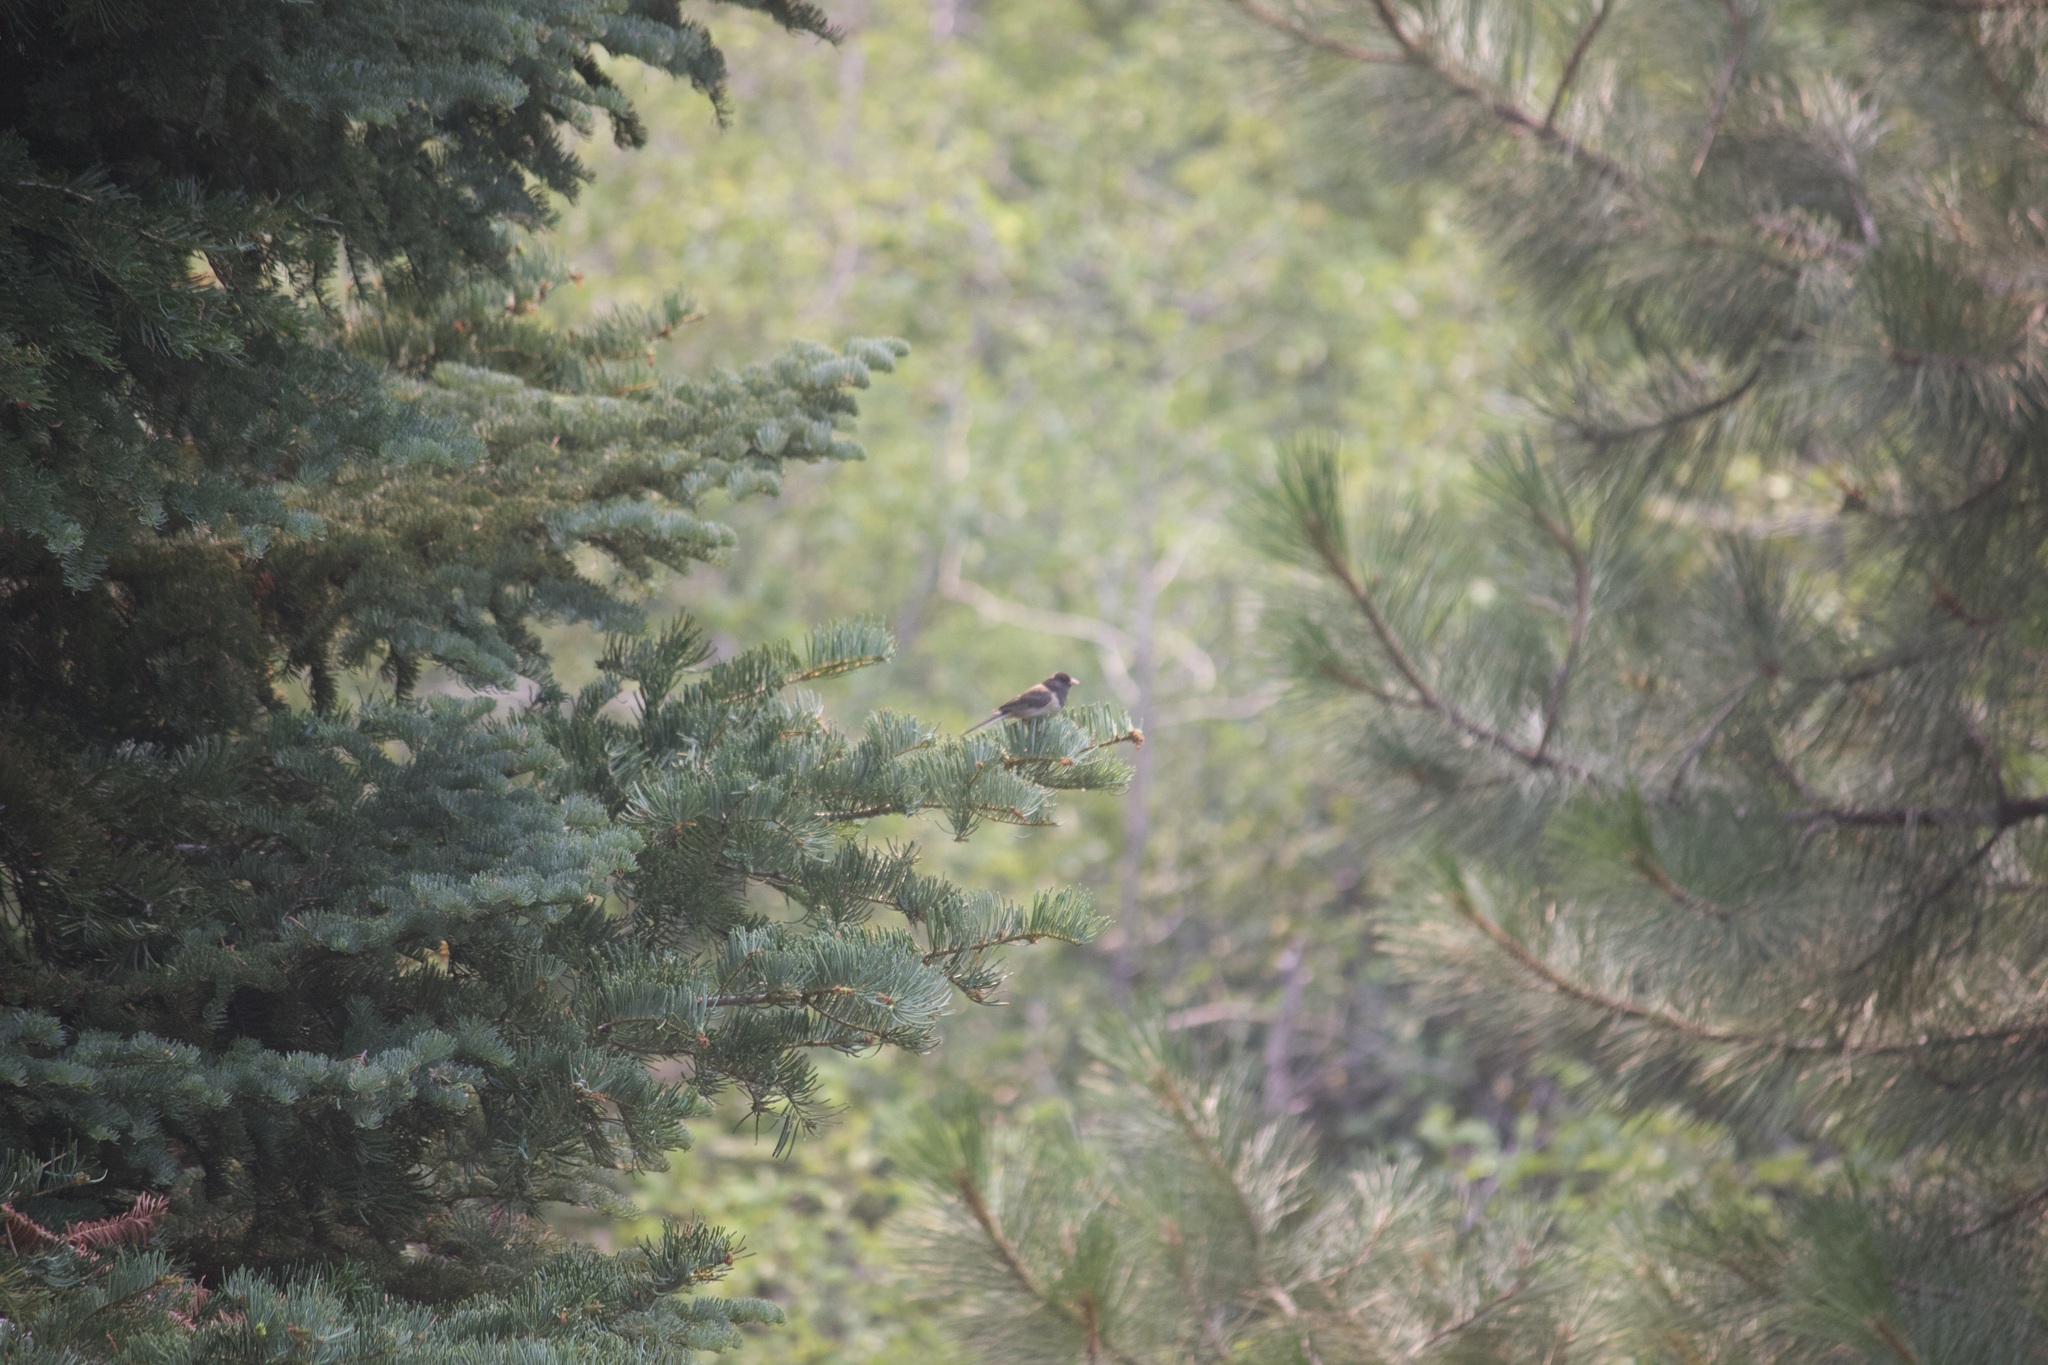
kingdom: Animalia
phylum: Chordata
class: Aves
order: Passeriformes
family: Passerellidae
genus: Junco
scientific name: Junco hyemalis
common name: Dark-eyed junco
